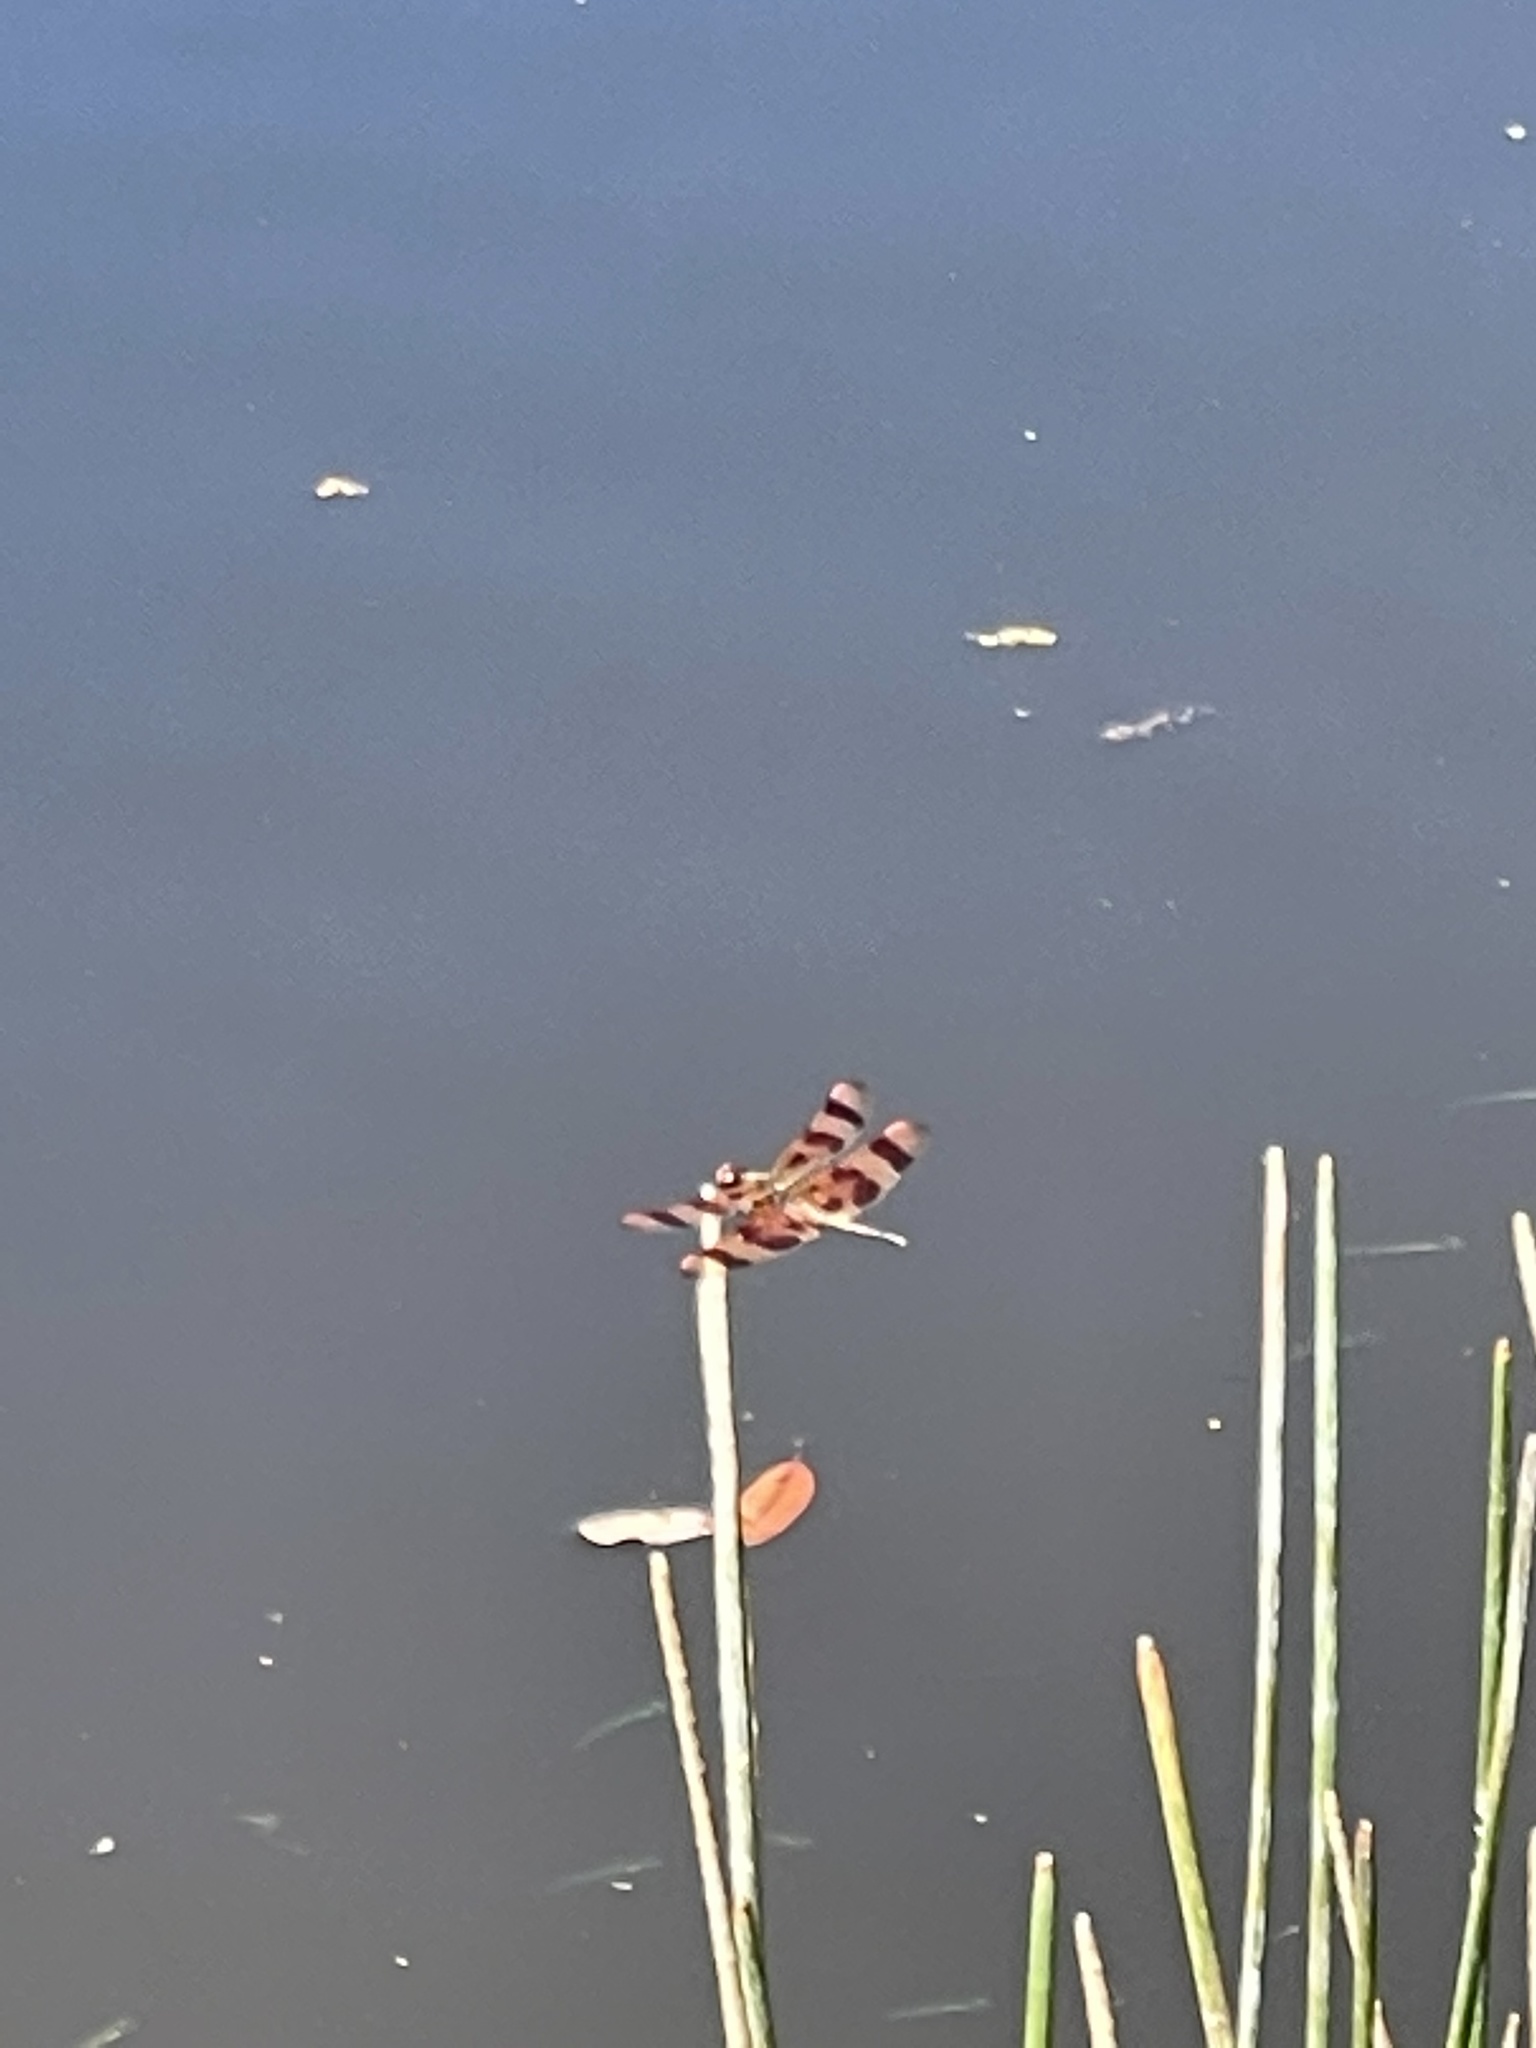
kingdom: Animalia
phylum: Arthropoda
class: Insecta
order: Odonata
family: Libellulidae
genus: Celithemis
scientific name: Celithemis eponina
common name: Halloween pennant
